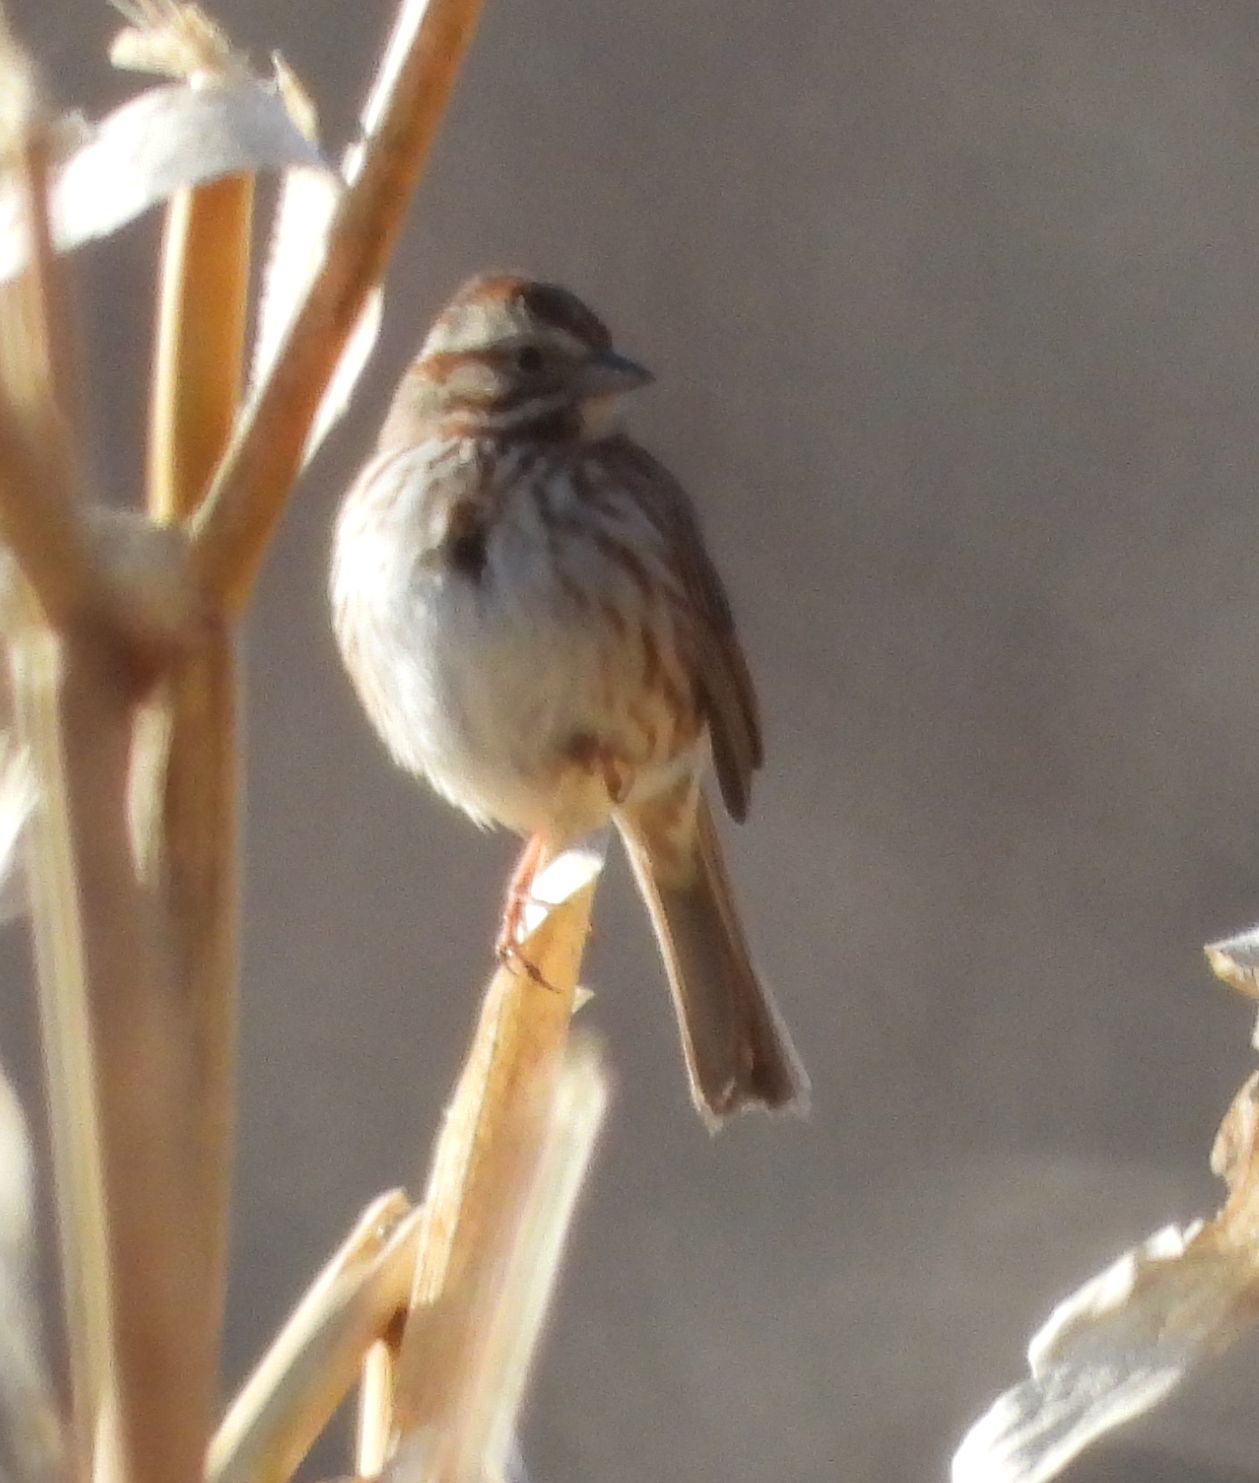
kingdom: Animalia
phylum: Chordata
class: Aves
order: Passeriformes
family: Passerellidae
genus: Melospiza
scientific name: Melospiza melodia
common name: Song sparrow
